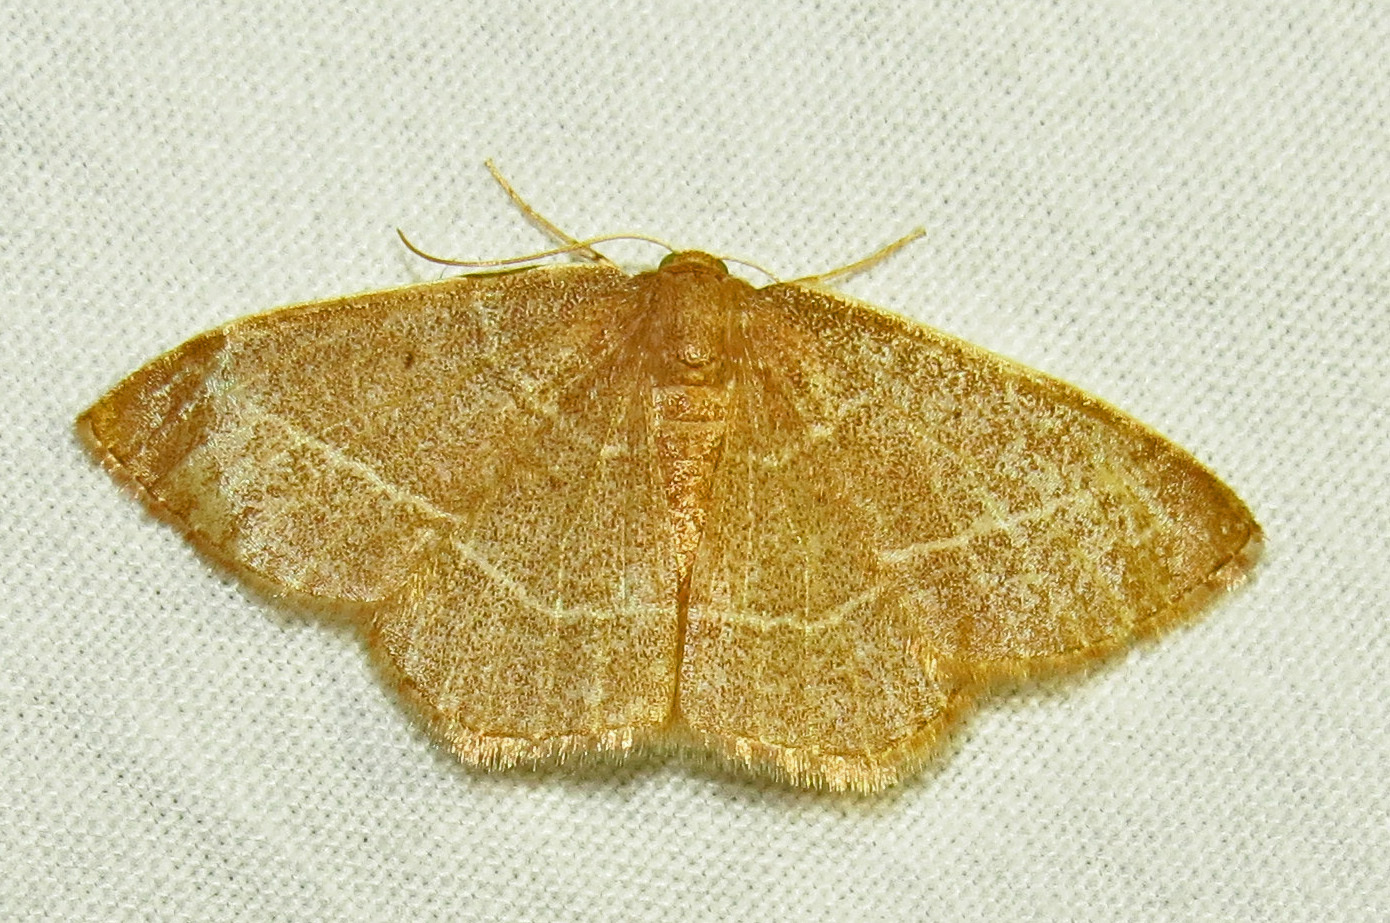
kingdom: Animalia
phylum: Arthropoda
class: Insecta
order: Lepidoptera
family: Geometridae
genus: Nemoria
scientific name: Nemoria bistriaria
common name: Red-fringed emerald
